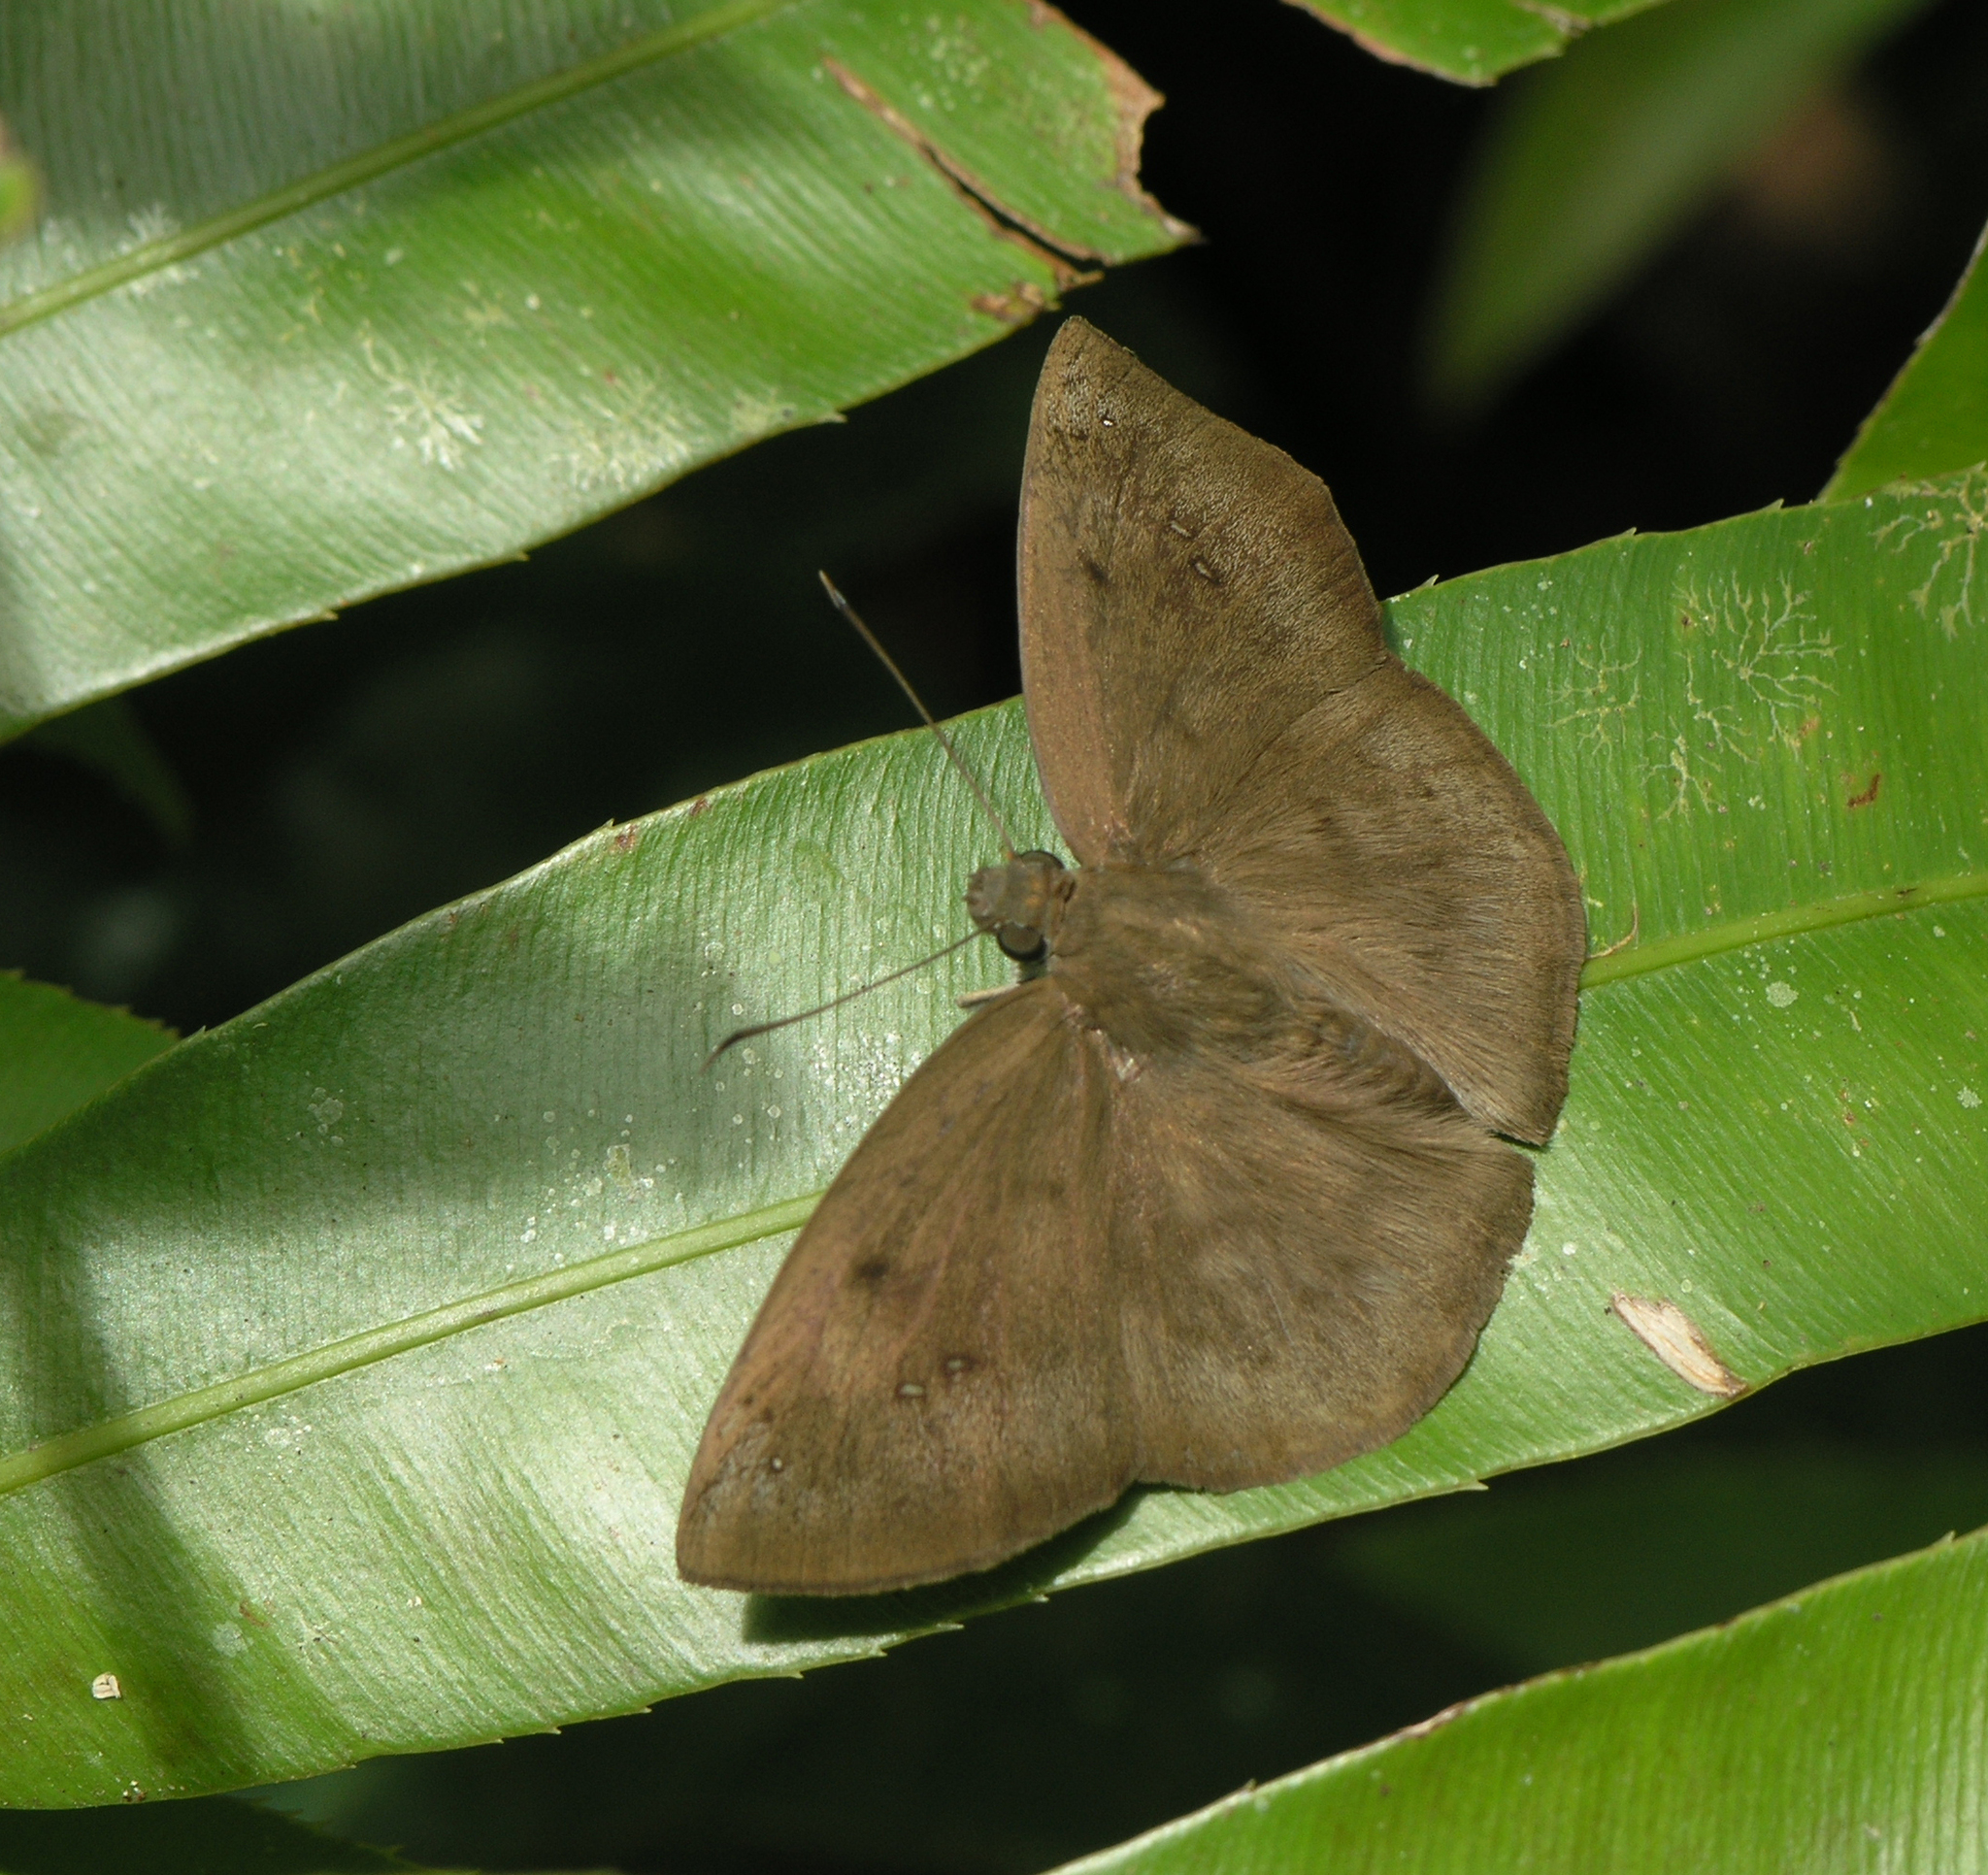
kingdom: Animalia
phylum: Arthropoda
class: Insecta
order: Lepidoptera
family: Hesperiidae
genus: Tagiades
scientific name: Tagiades japetus
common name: Pied flat
